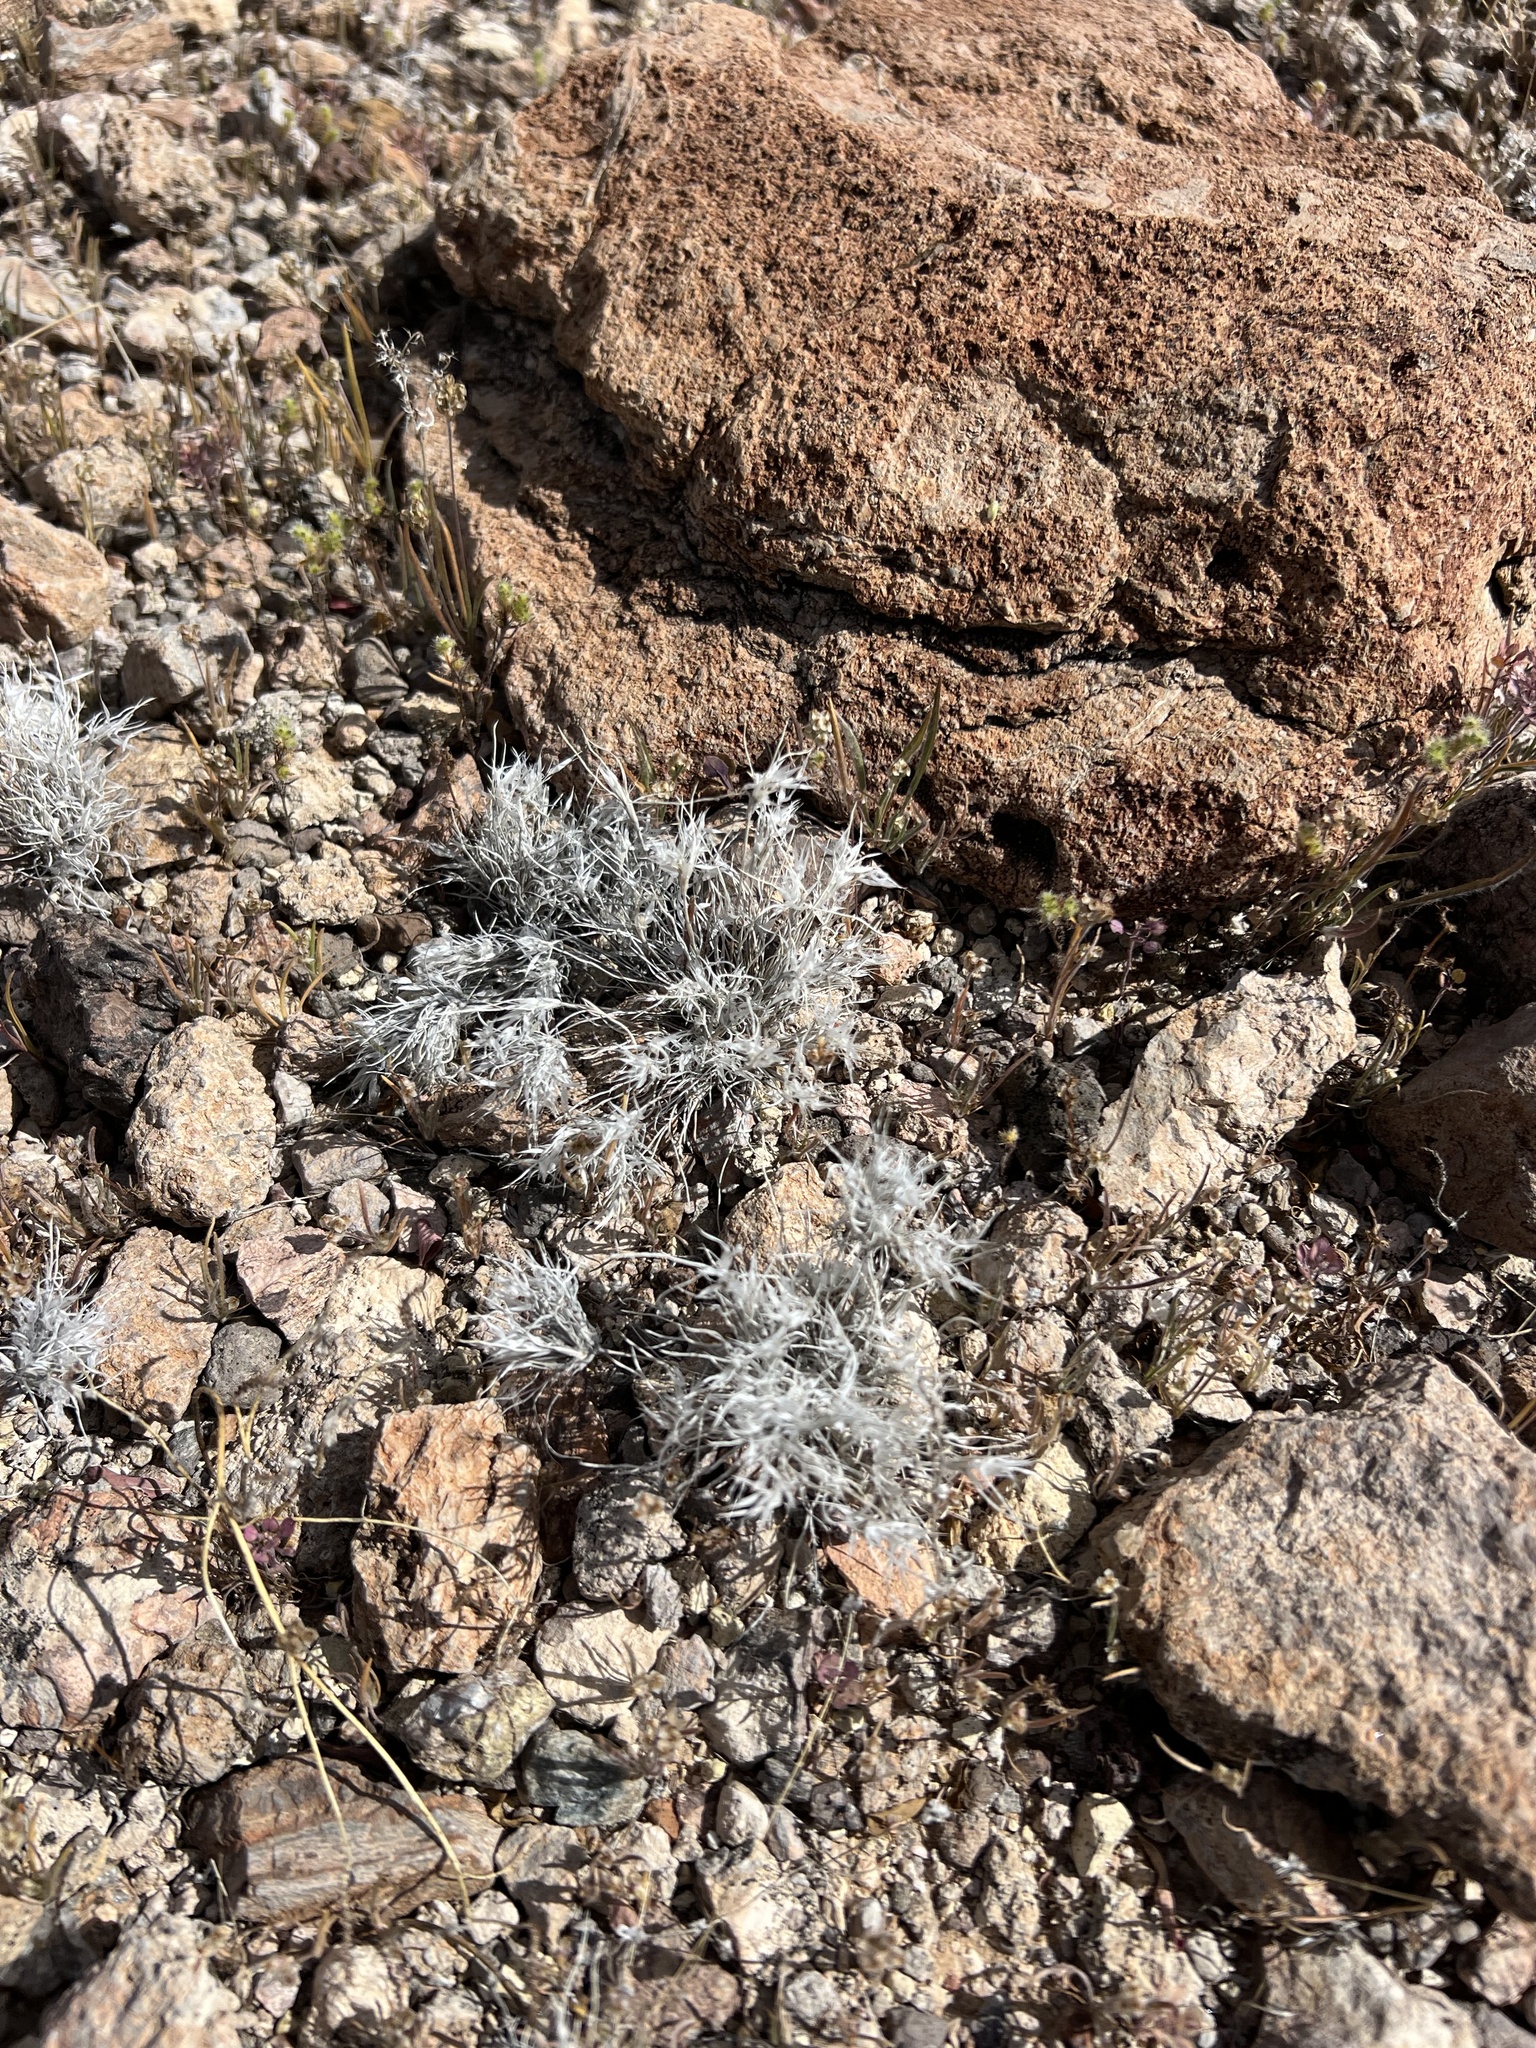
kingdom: Plantae
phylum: Tracheophyta
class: Liliopsida
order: Poales
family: Poaceae
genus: Dasyochloa
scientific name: Dasyochloa pulchella
